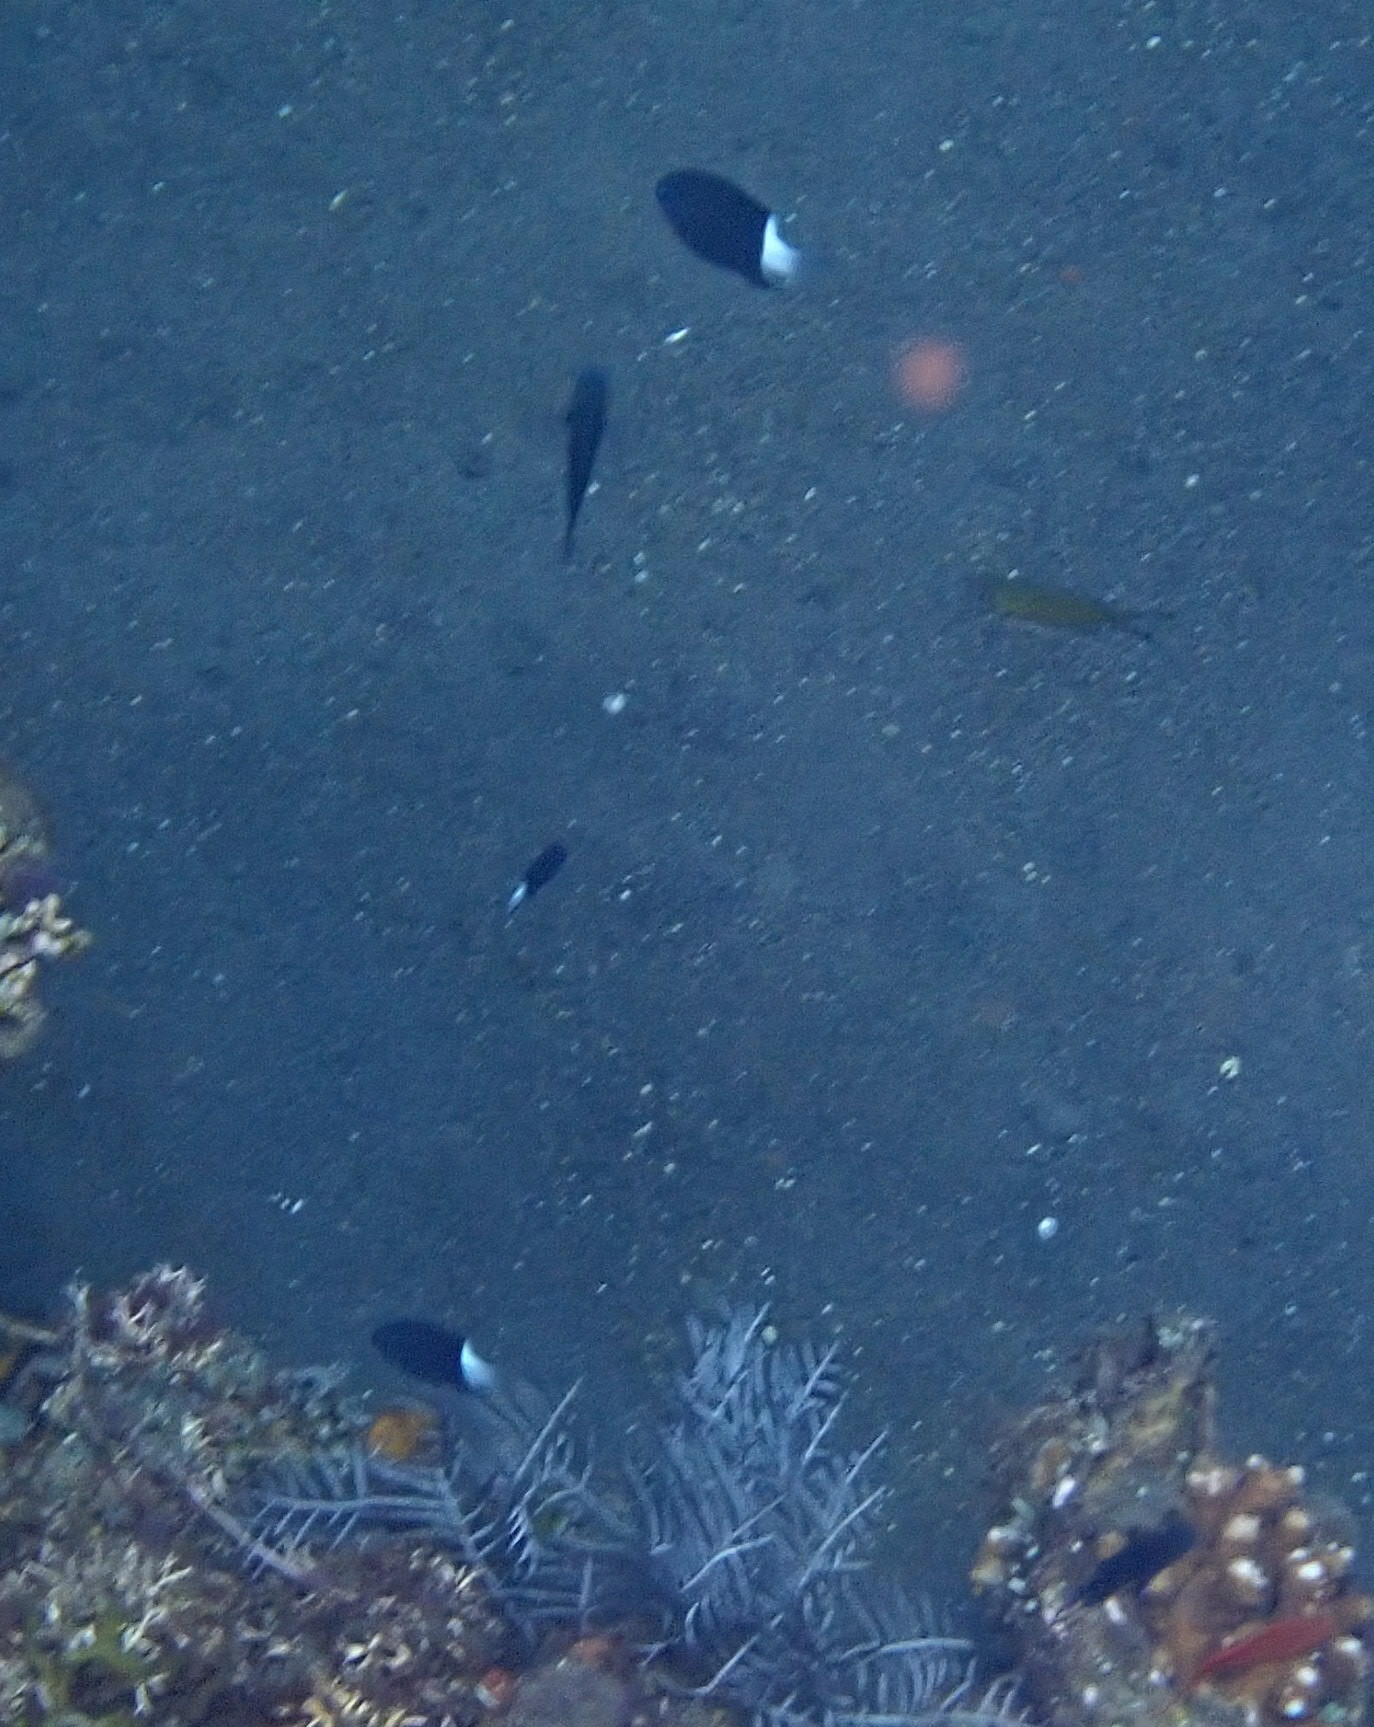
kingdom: Animalia
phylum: Chordata
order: Perciformes
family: Pomacentridae
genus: Pycnochromis
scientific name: Pycnochromis margaritifer
